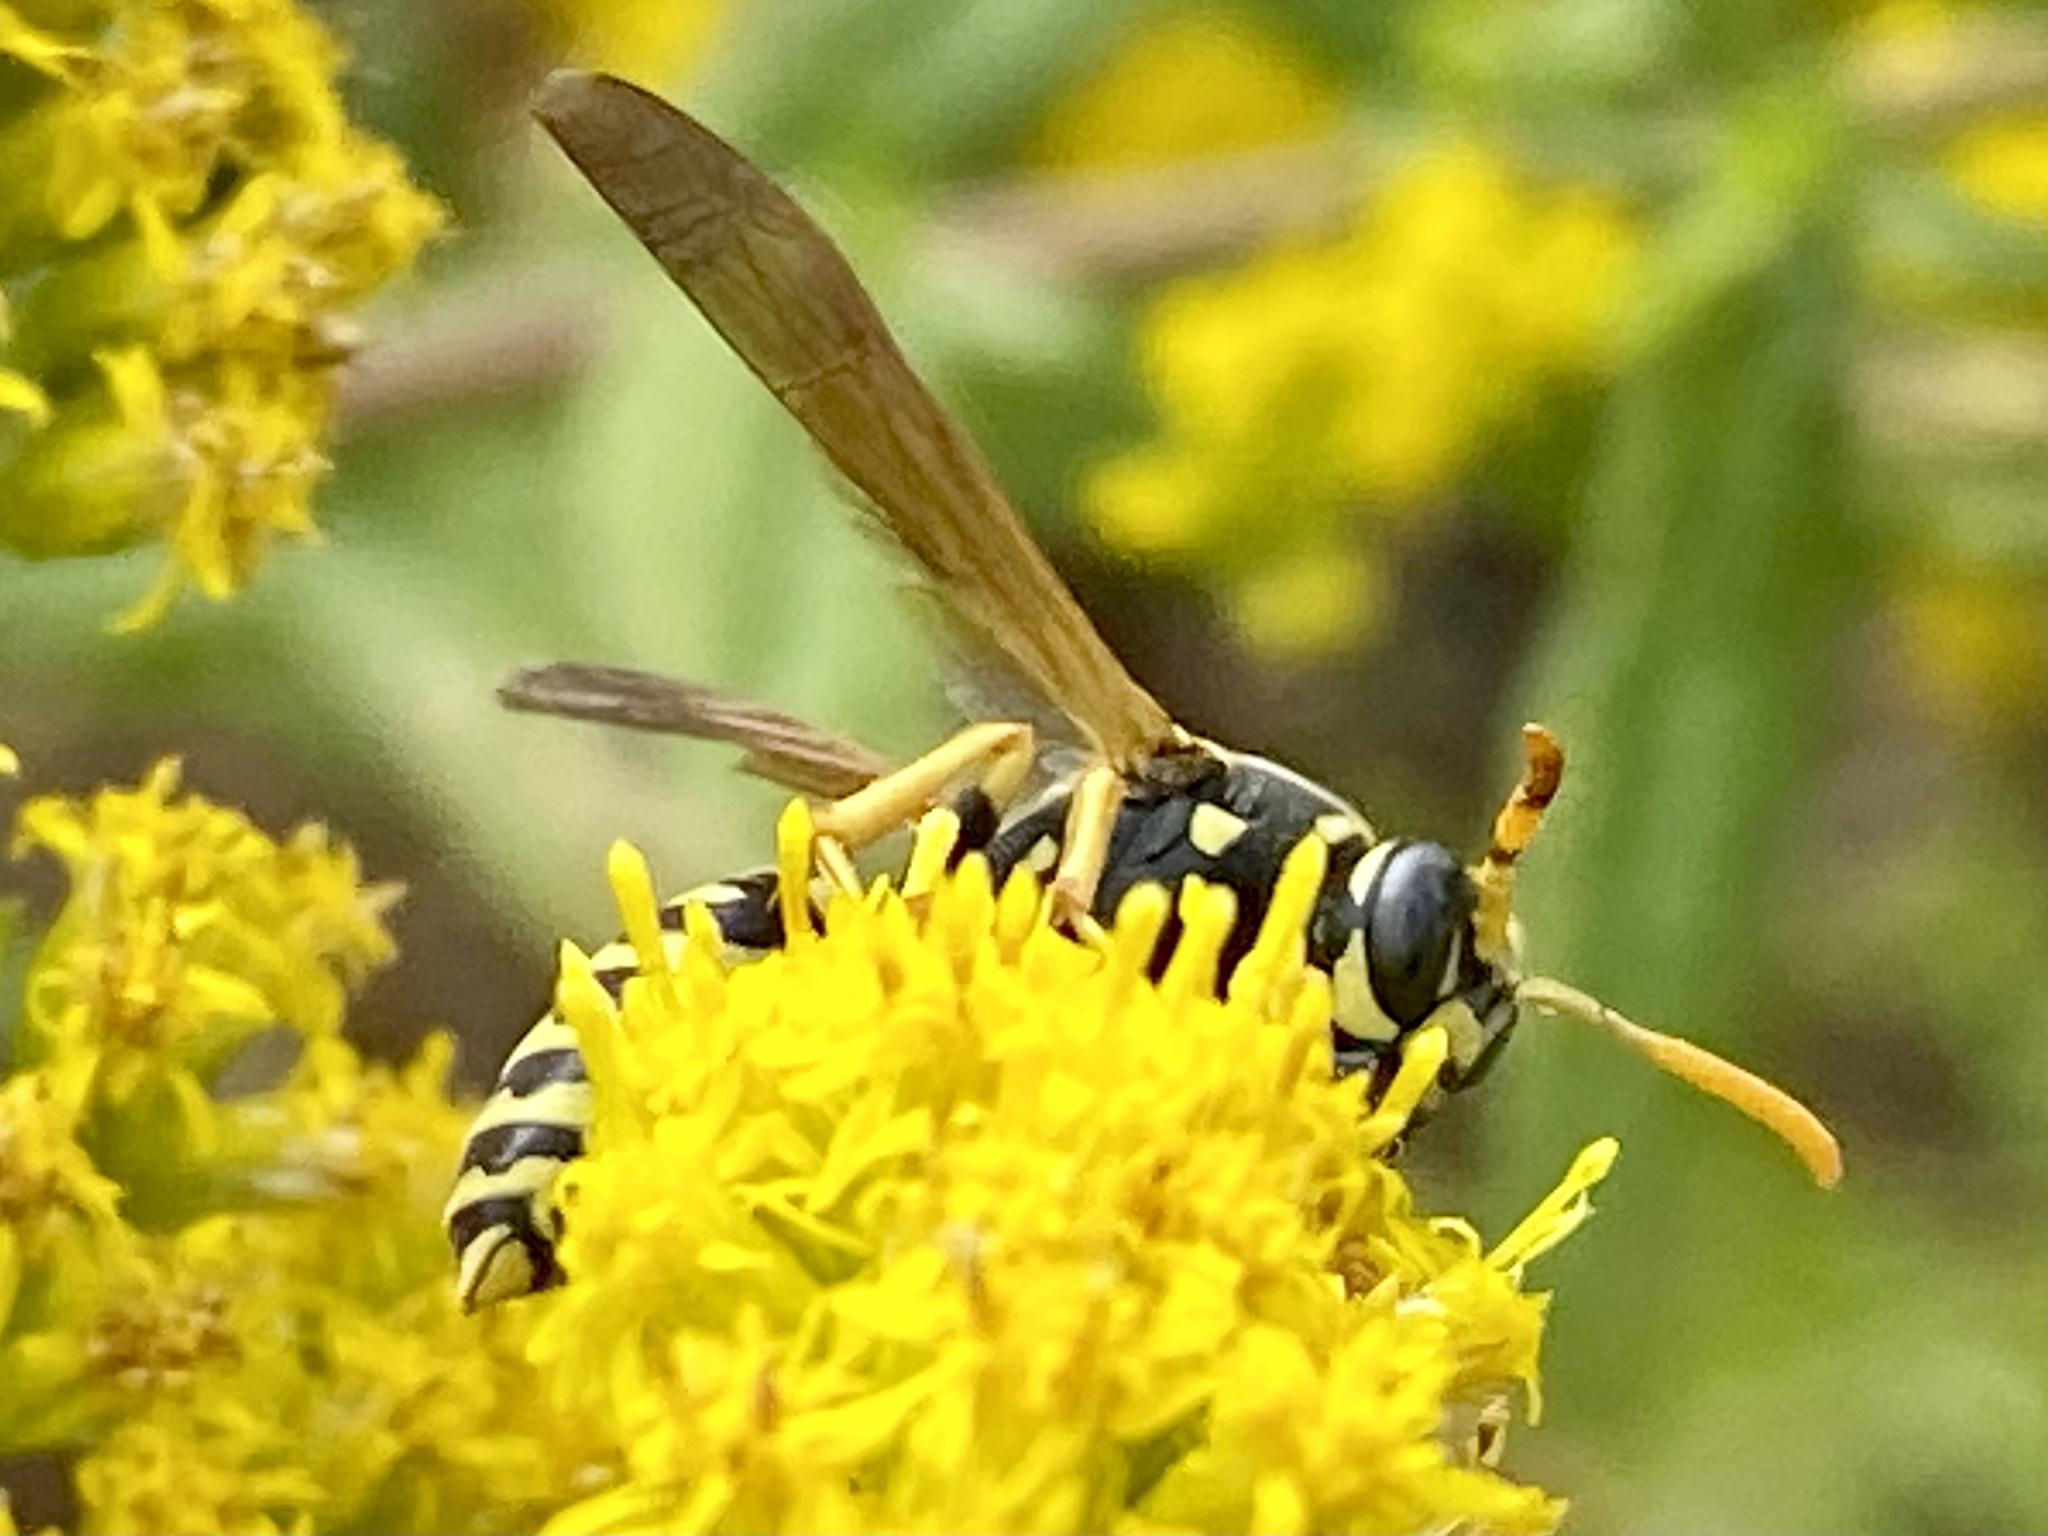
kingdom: Animalia
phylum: Arthropoda
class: Insecta
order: Hymenoptera
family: Eumenidae
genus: Polistes
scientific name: Polistes dominula
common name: Paper wasp
